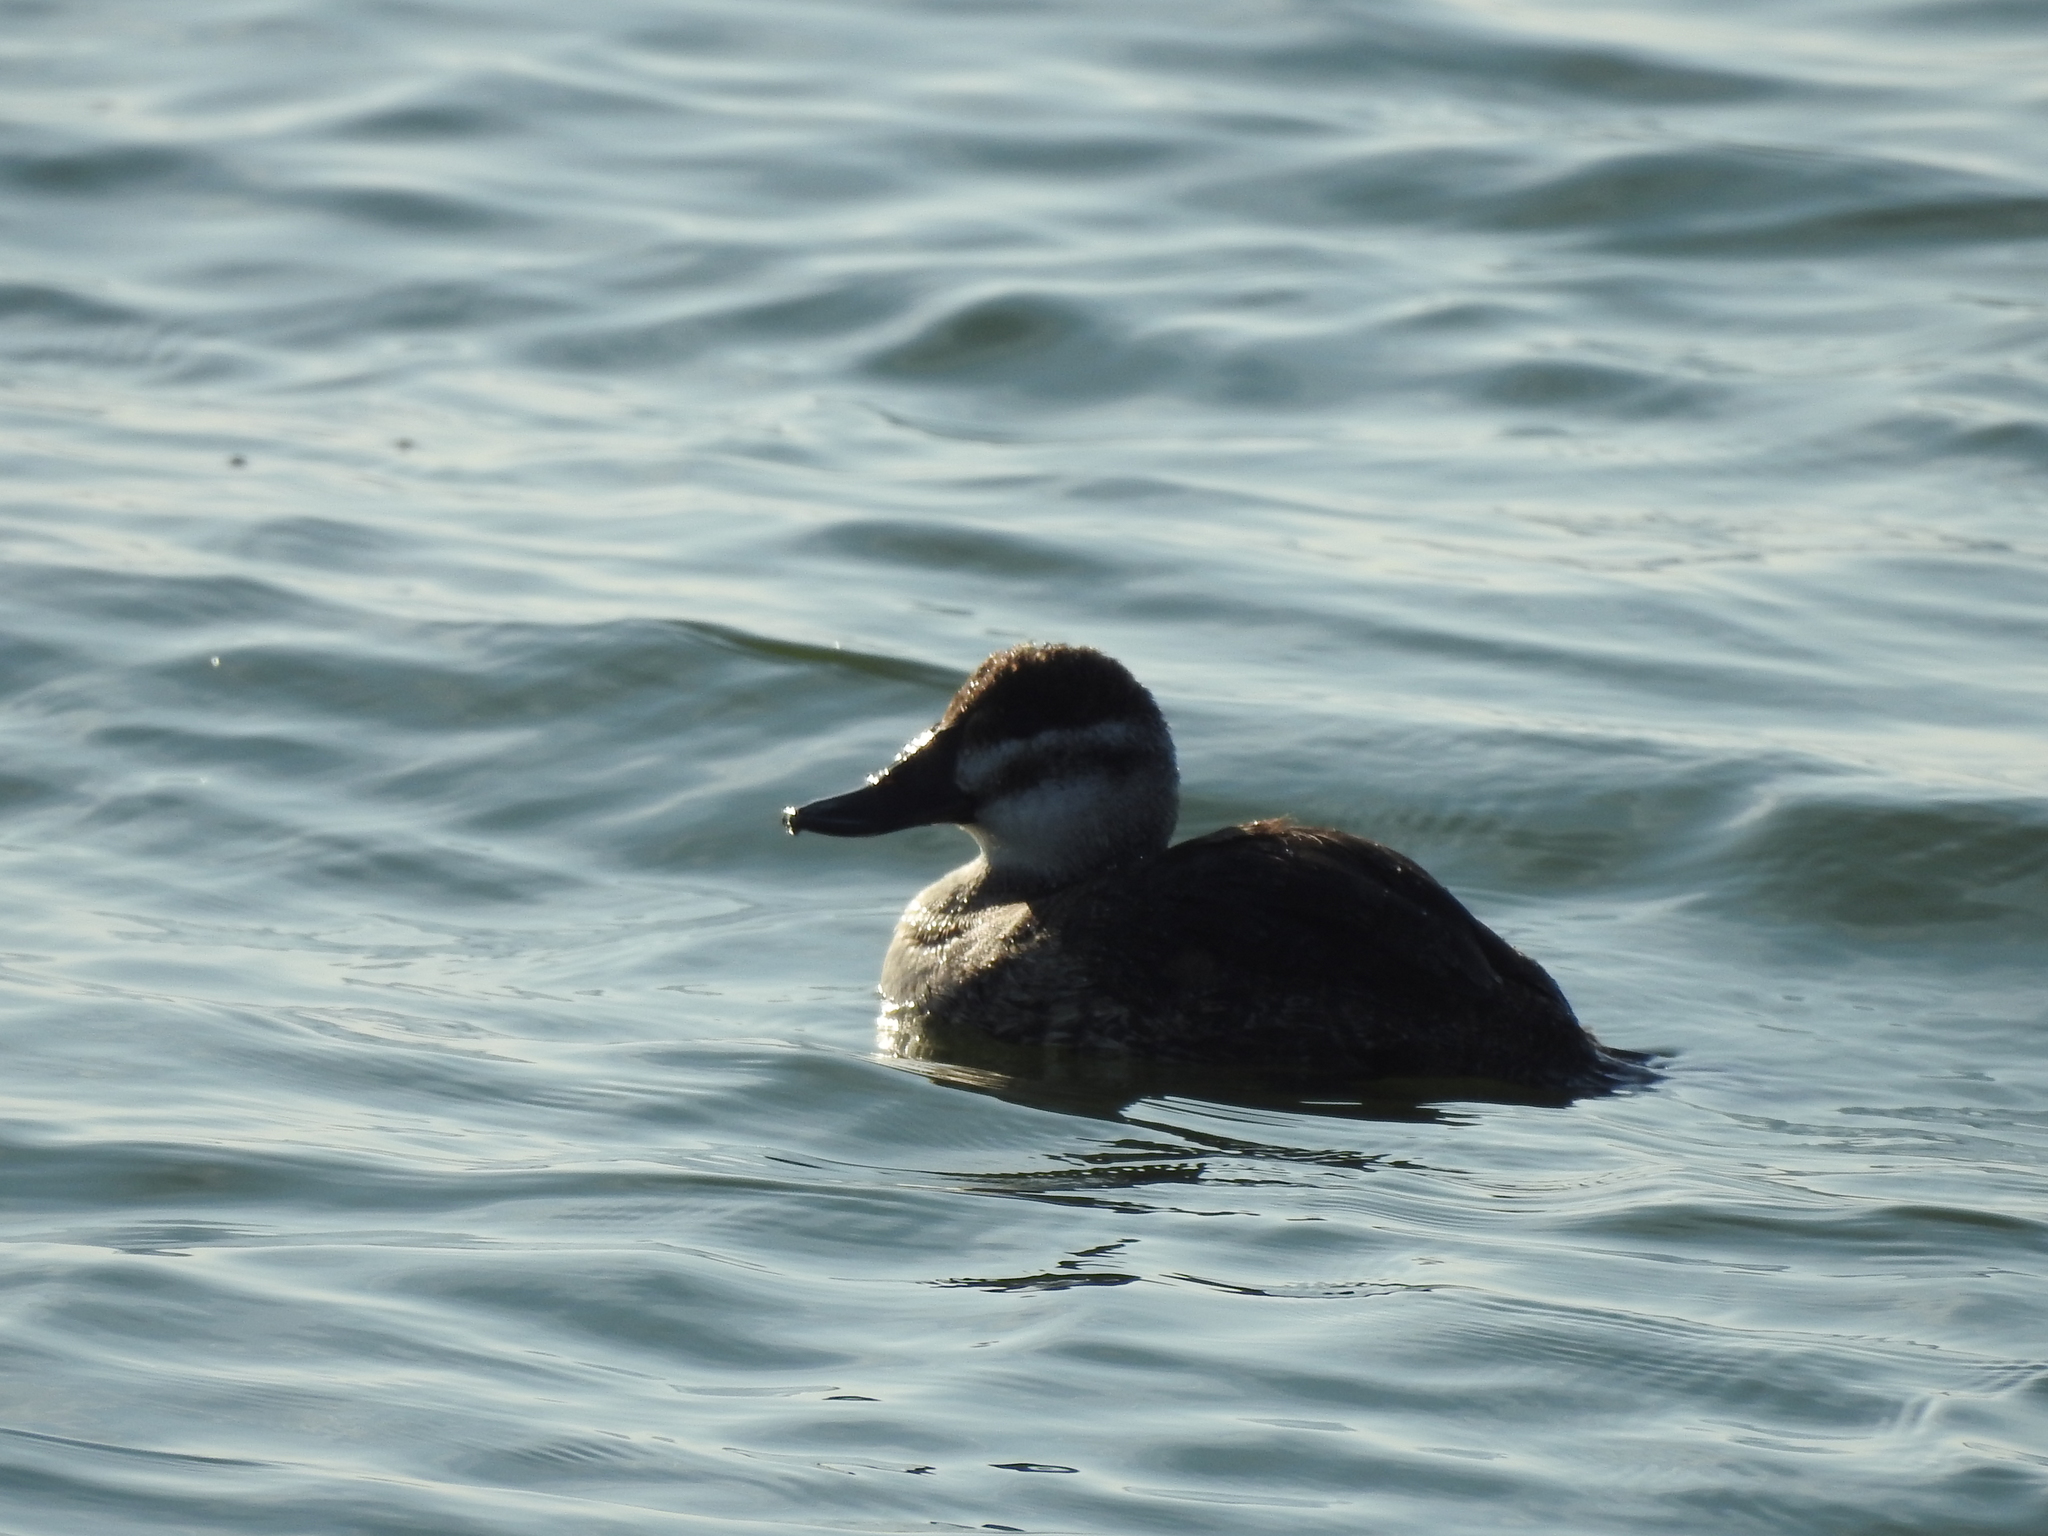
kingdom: Animalia
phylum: Chordata
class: Aves
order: Anseriformes
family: Anatidae
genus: Oxyura
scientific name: Oxyura vittata
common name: Lake duck
